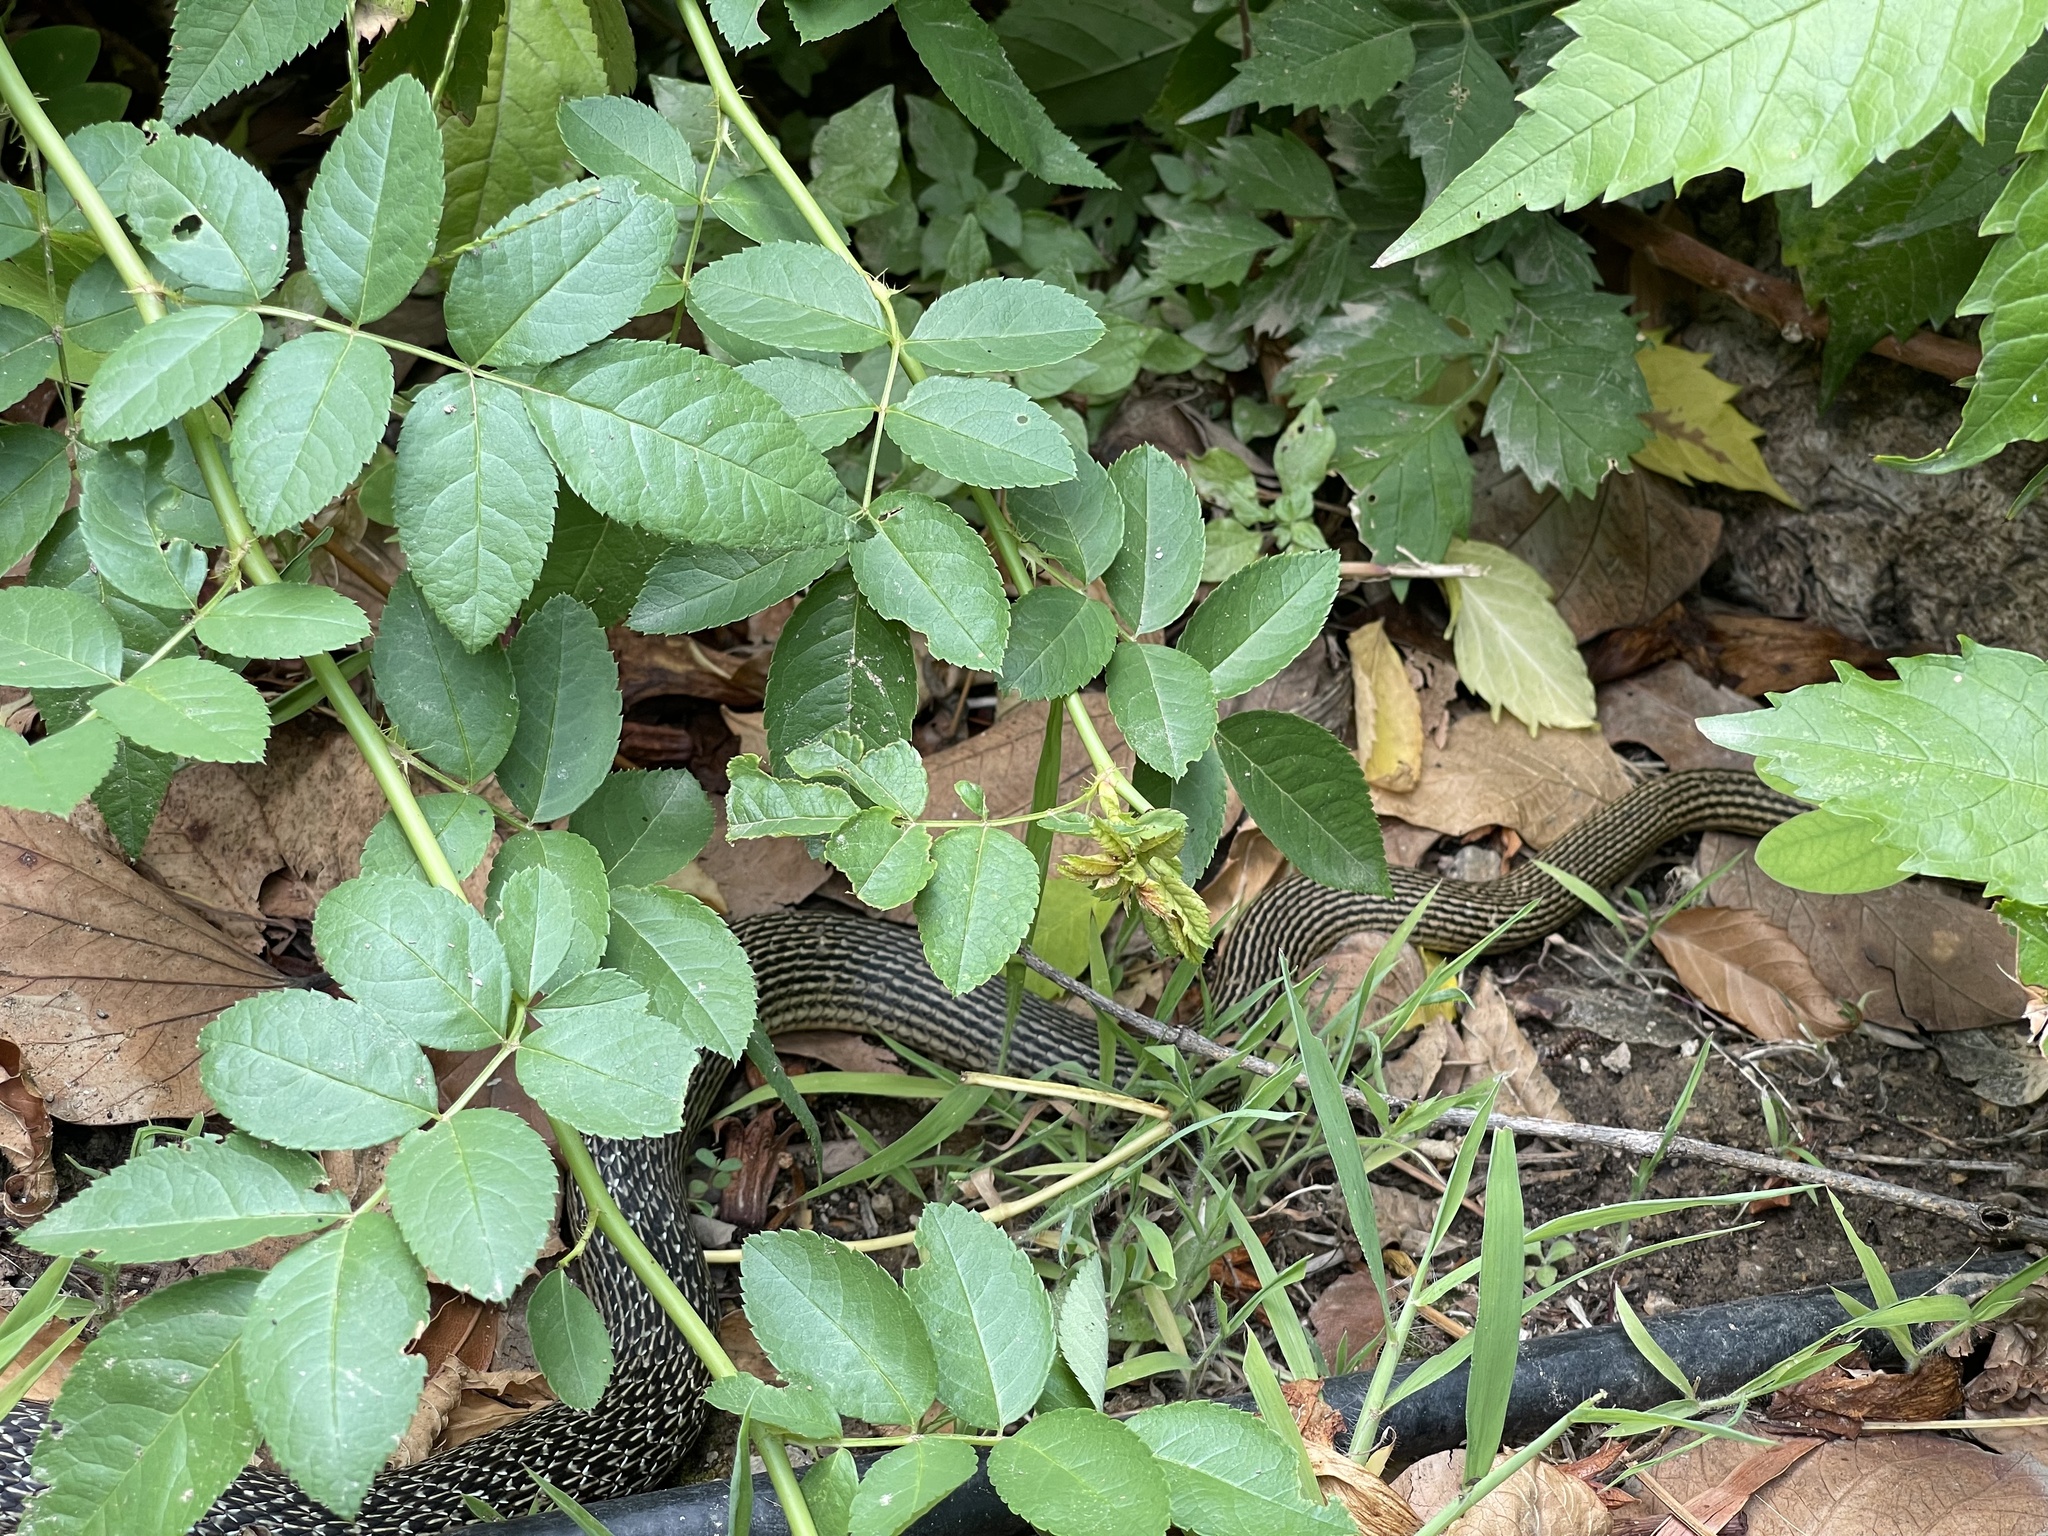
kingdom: Animalia
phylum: Chordata
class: Squamata
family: Colubridae
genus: Hierophis
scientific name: Hierophis gemonensis
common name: Balkan whip snake
